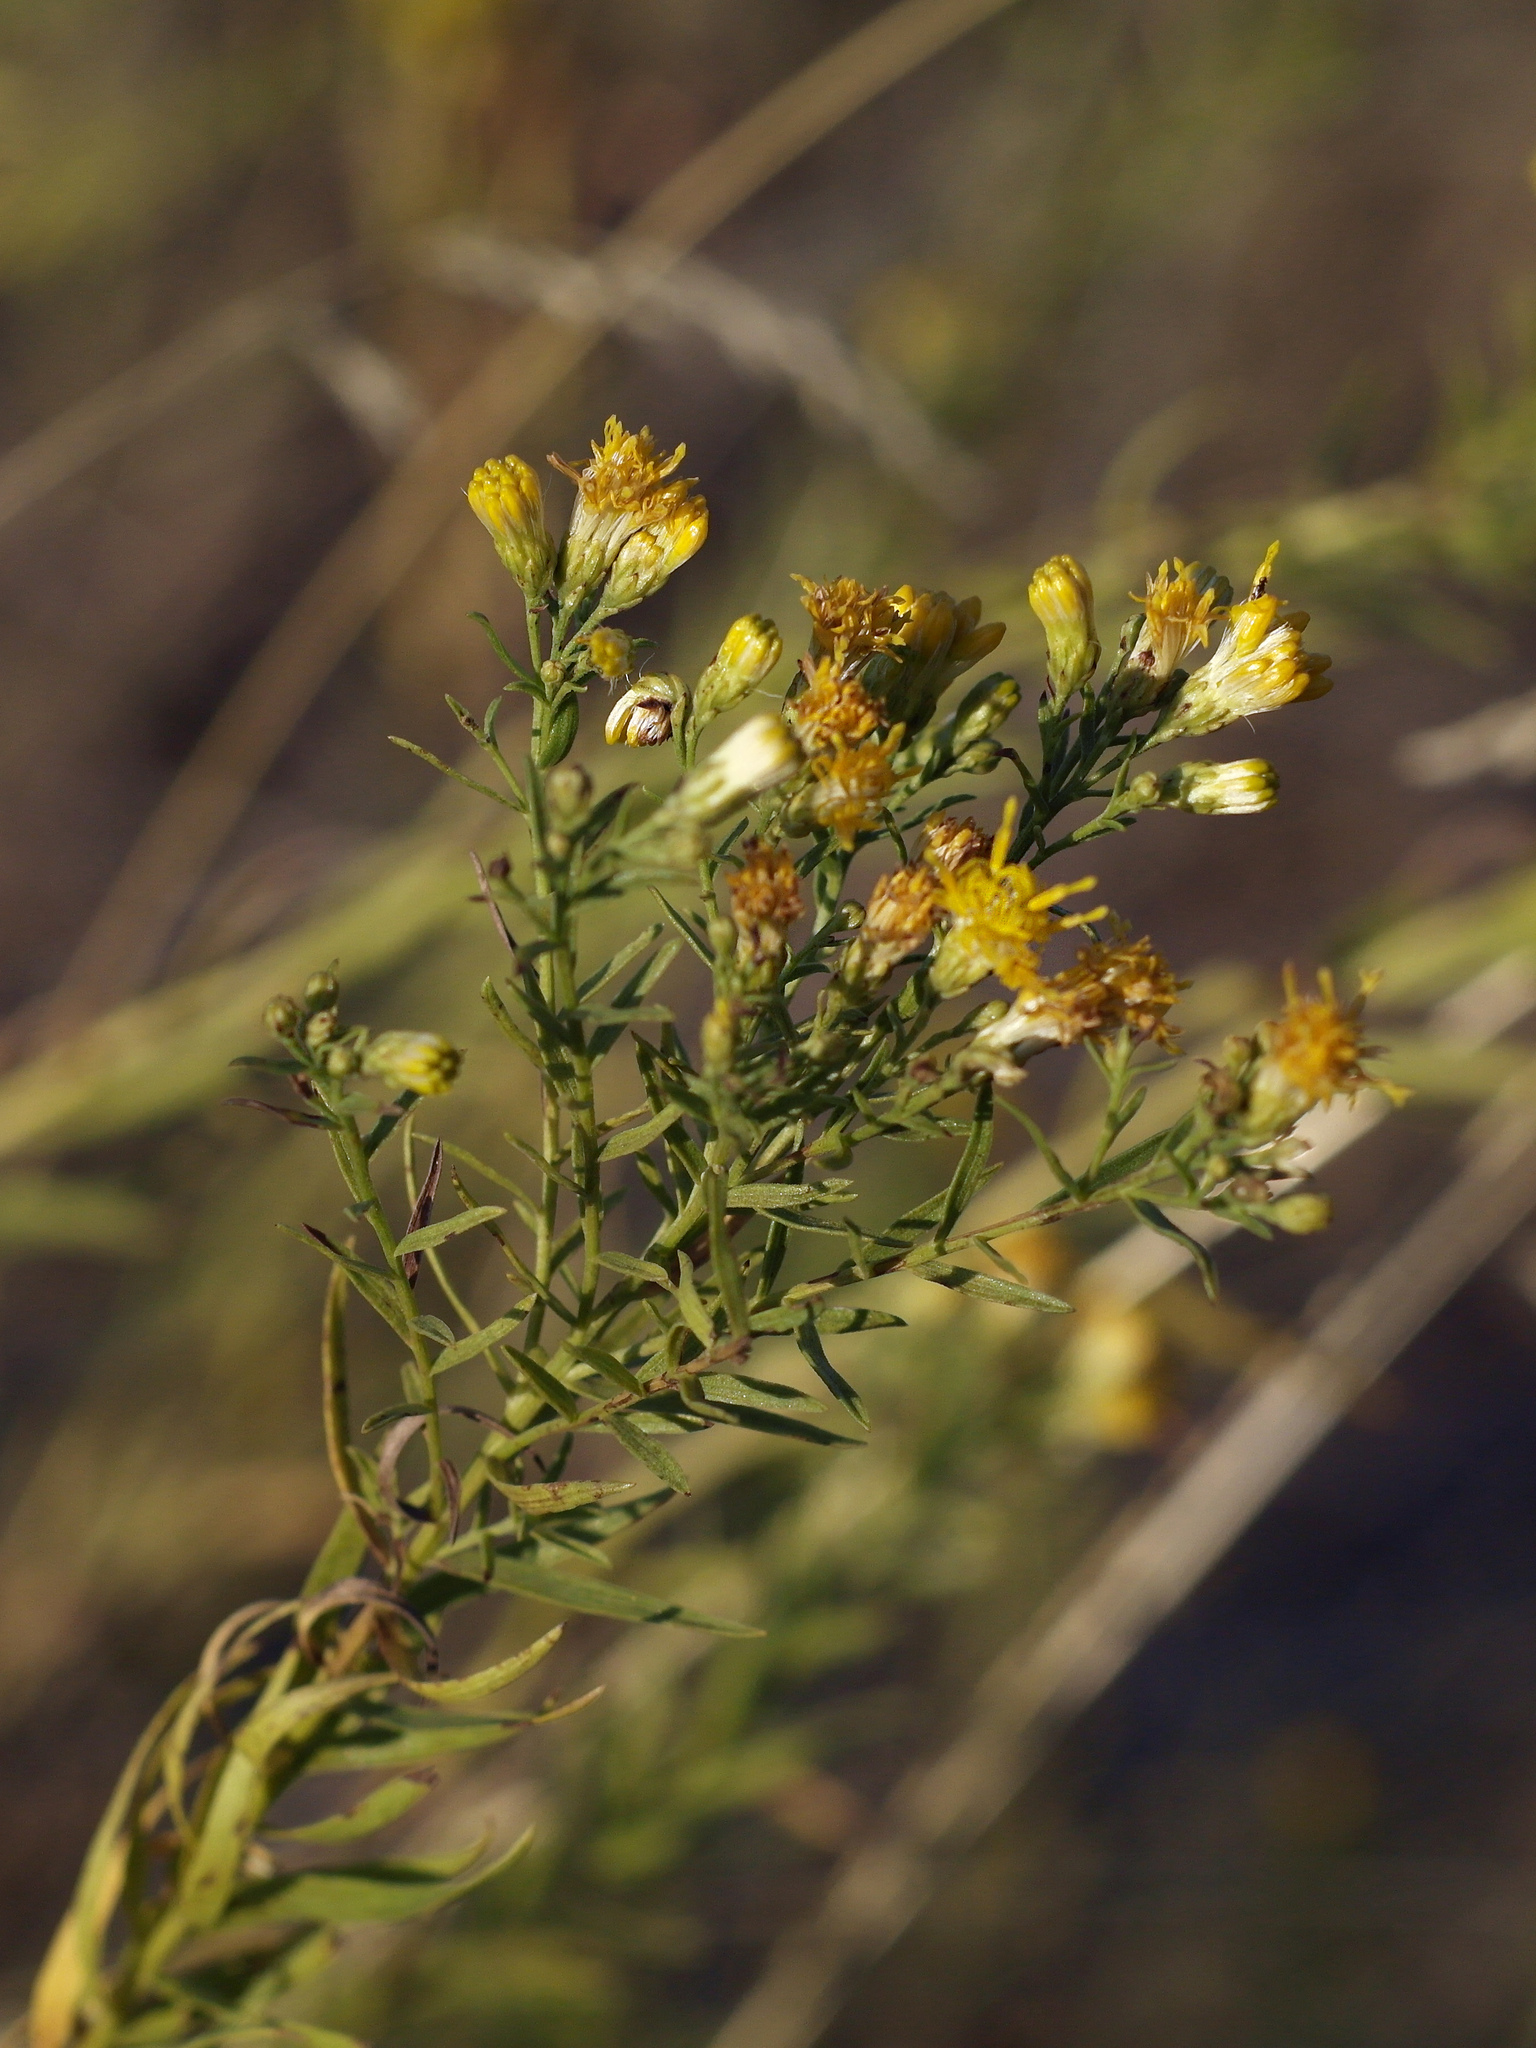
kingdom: Plantae
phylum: Tracheophyta
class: Magnoliopsida
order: Asterales
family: Asteraceae
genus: Galatella
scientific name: Galatella biflora
